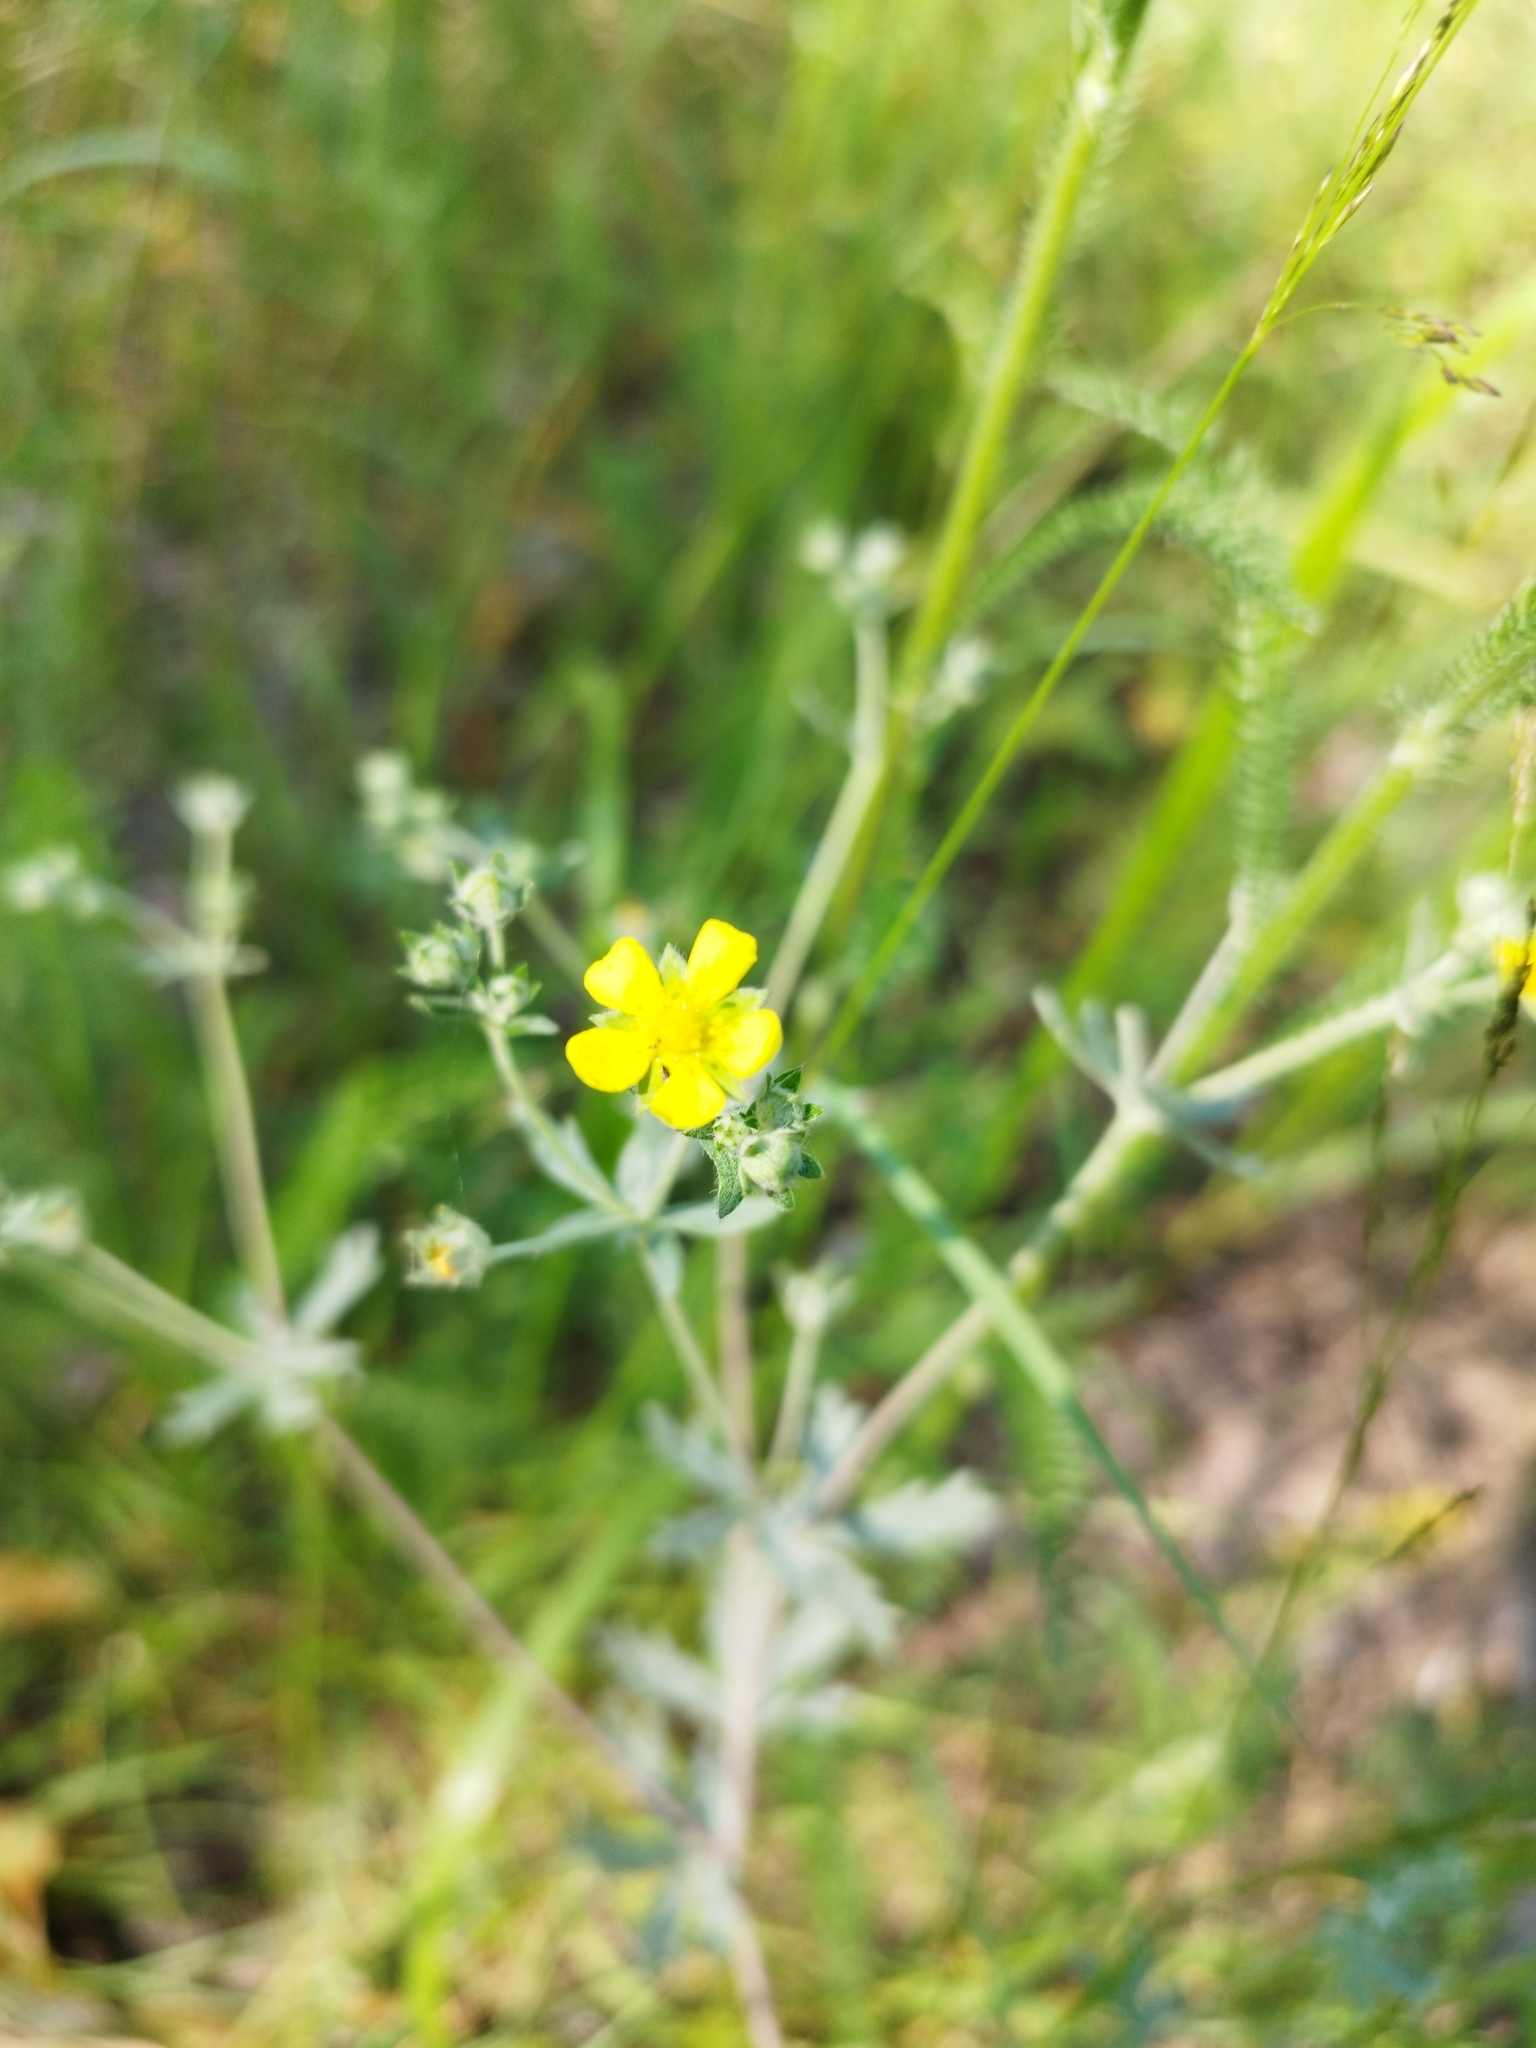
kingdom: Plantae
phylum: Tracheophyta
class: Magnoliopsida
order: Rosales
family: Rosaceae
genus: Potentilla
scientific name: Potentilla argentea
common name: Hoary cinquefoil
